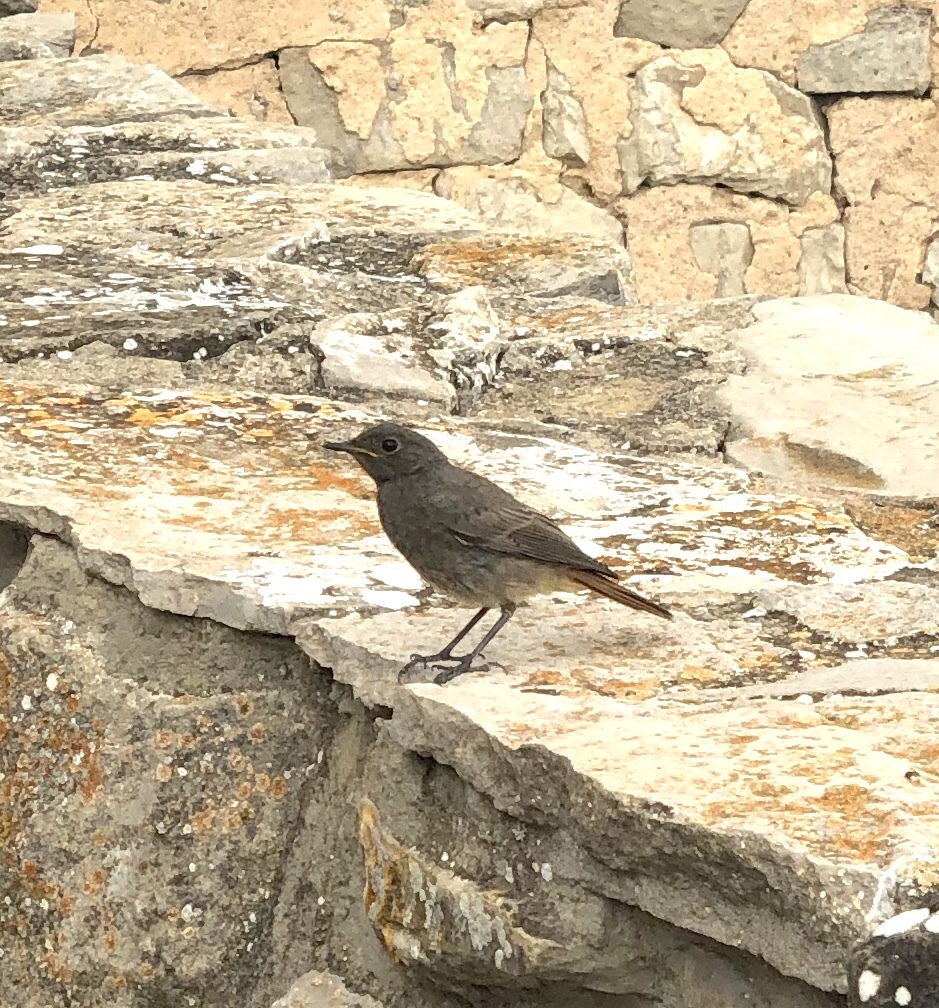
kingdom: Animalia
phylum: Chordata
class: Aves
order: Passeriformes
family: Muscicapidae
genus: Phoenicurus
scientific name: Phoenicurus ochruros
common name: Black redstart
